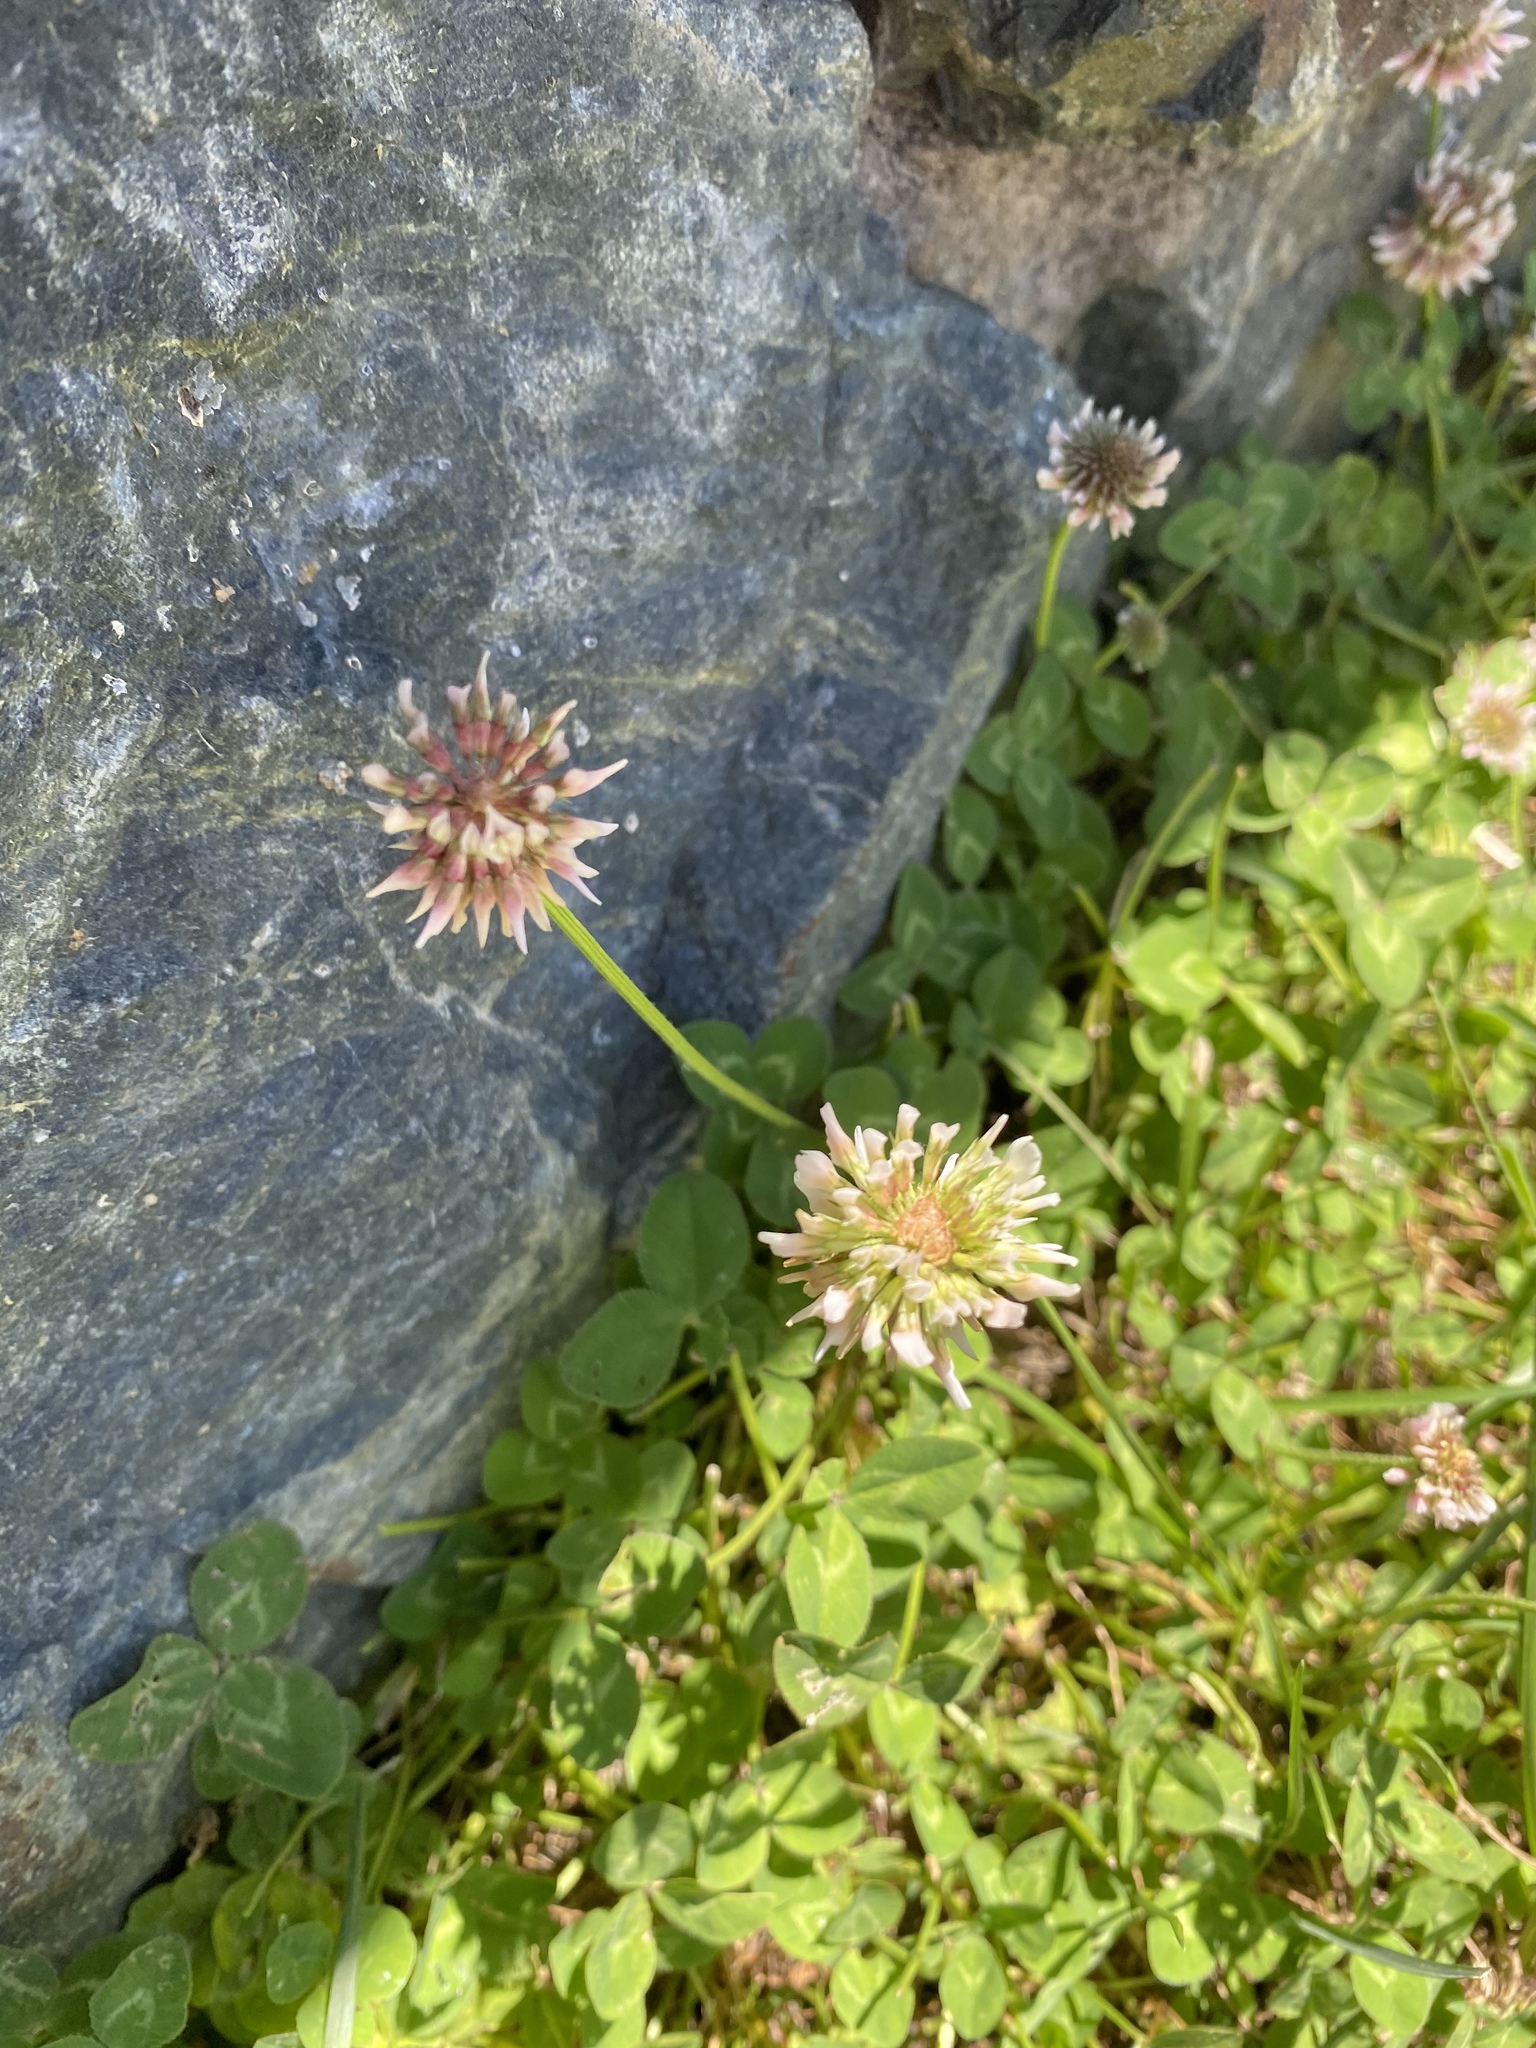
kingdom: Plantae
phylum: Tracheophyta
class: Magnoliopsida
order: Fabales
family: Fabaceae
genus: Trifolium
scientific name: Trifolium repens
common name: White clover
